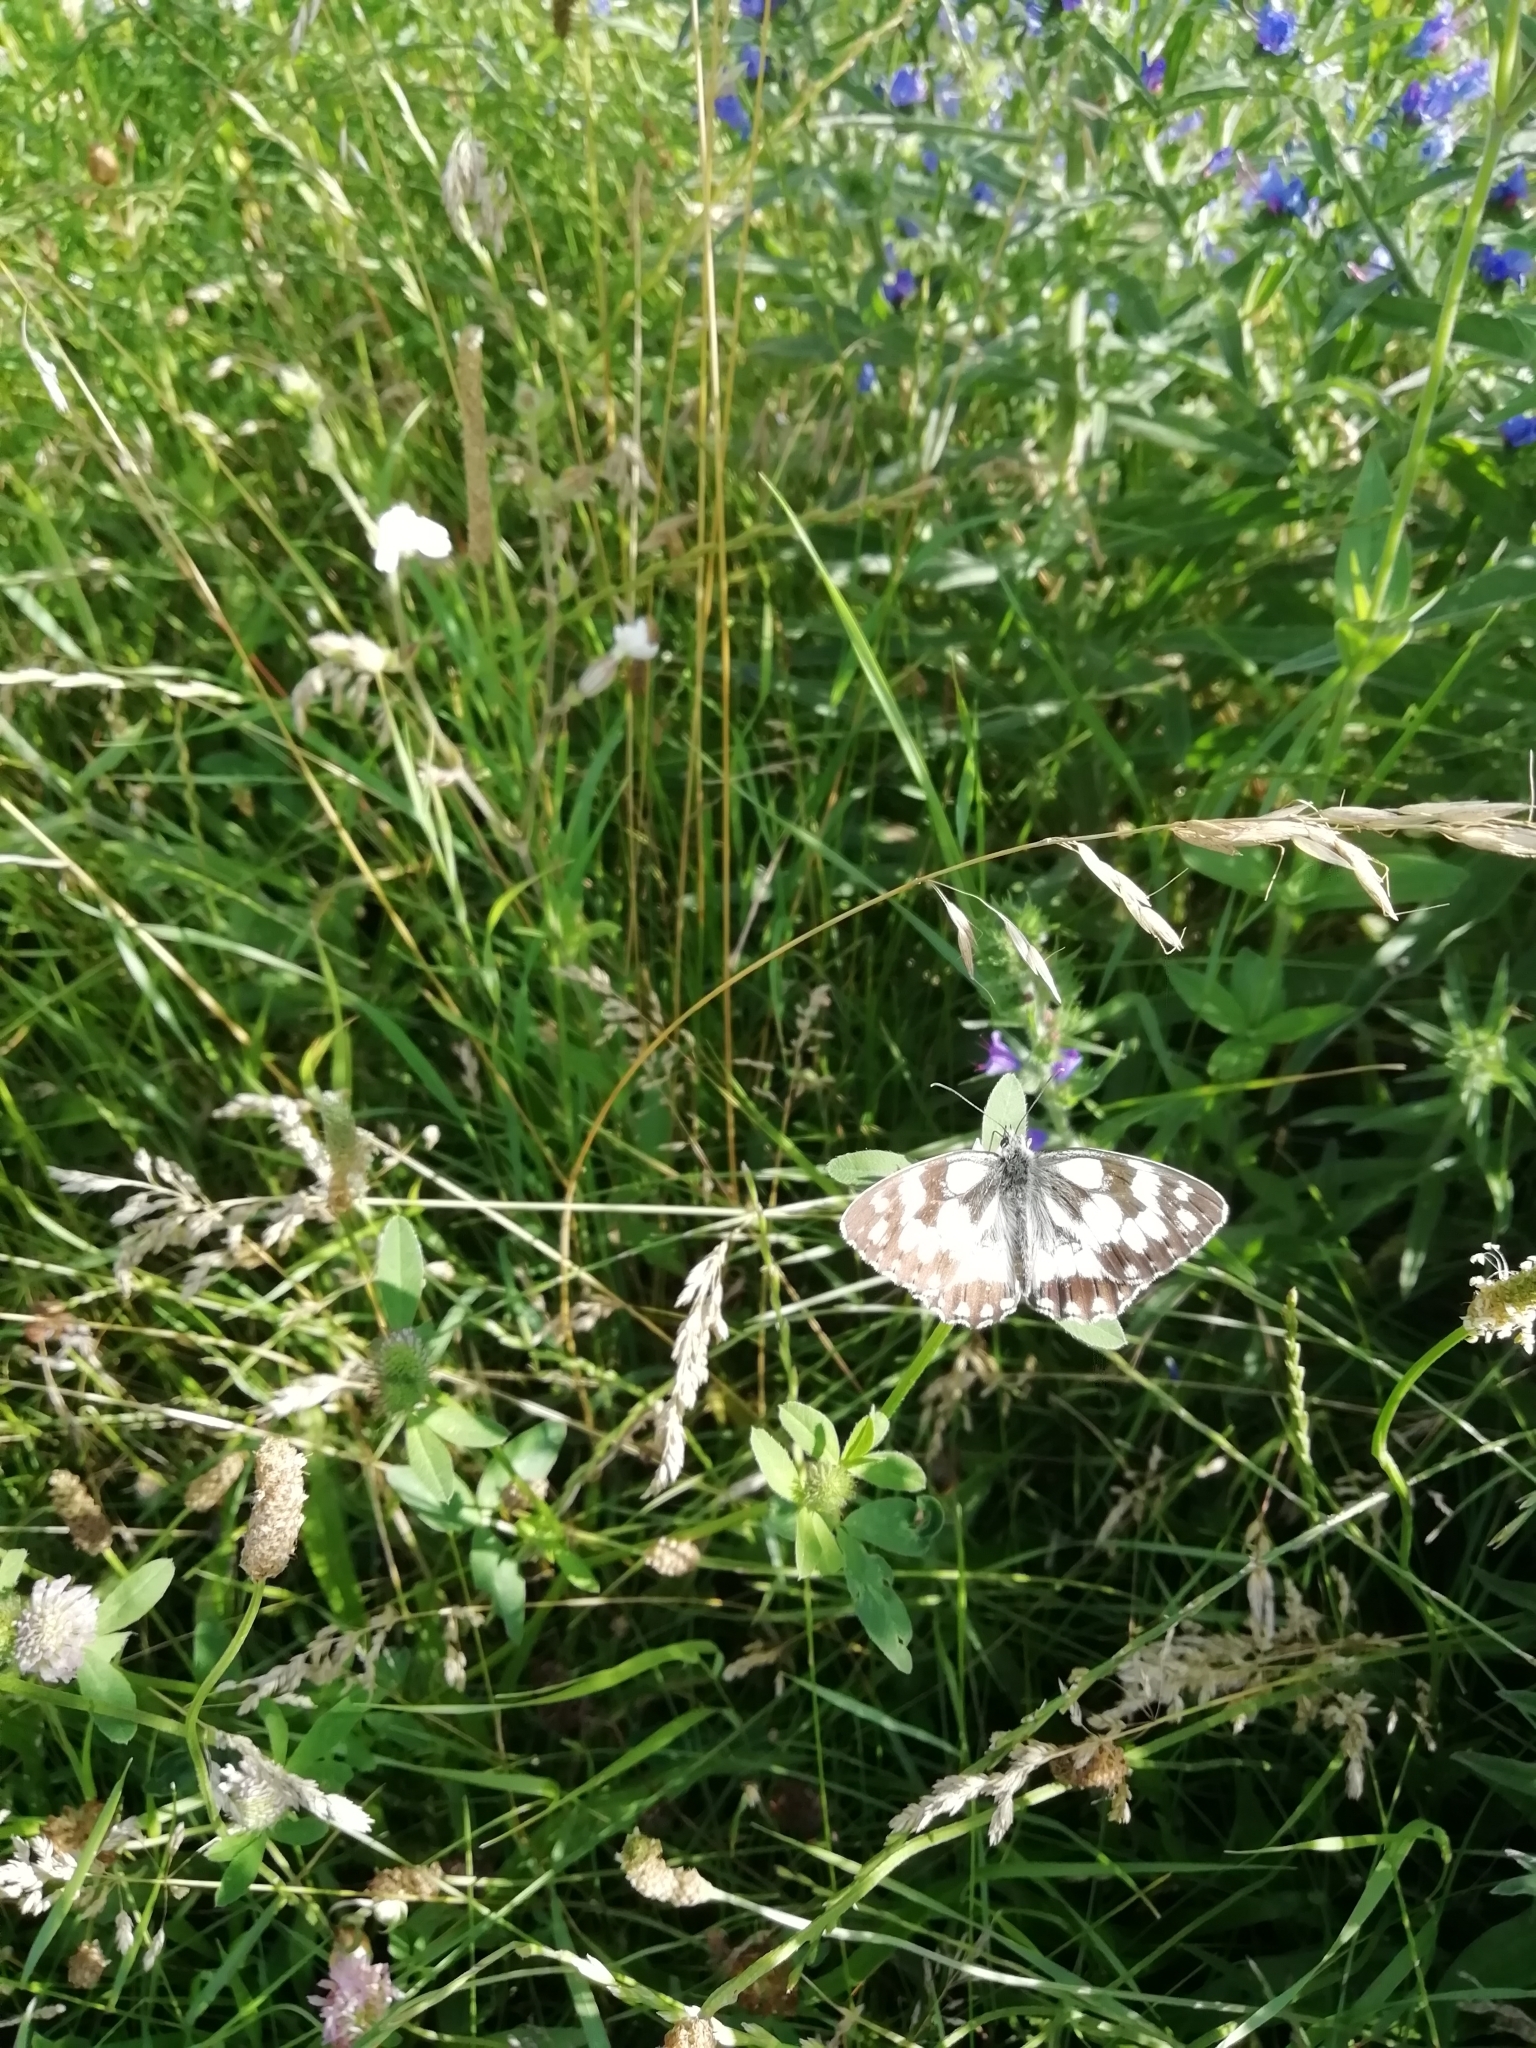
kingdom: Animalia
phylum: Arthropoda
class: Insecta
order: Lepidoptera
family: Nymphalidae
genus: Melanargia
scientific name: Melanargia galathea
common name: Marbled white
